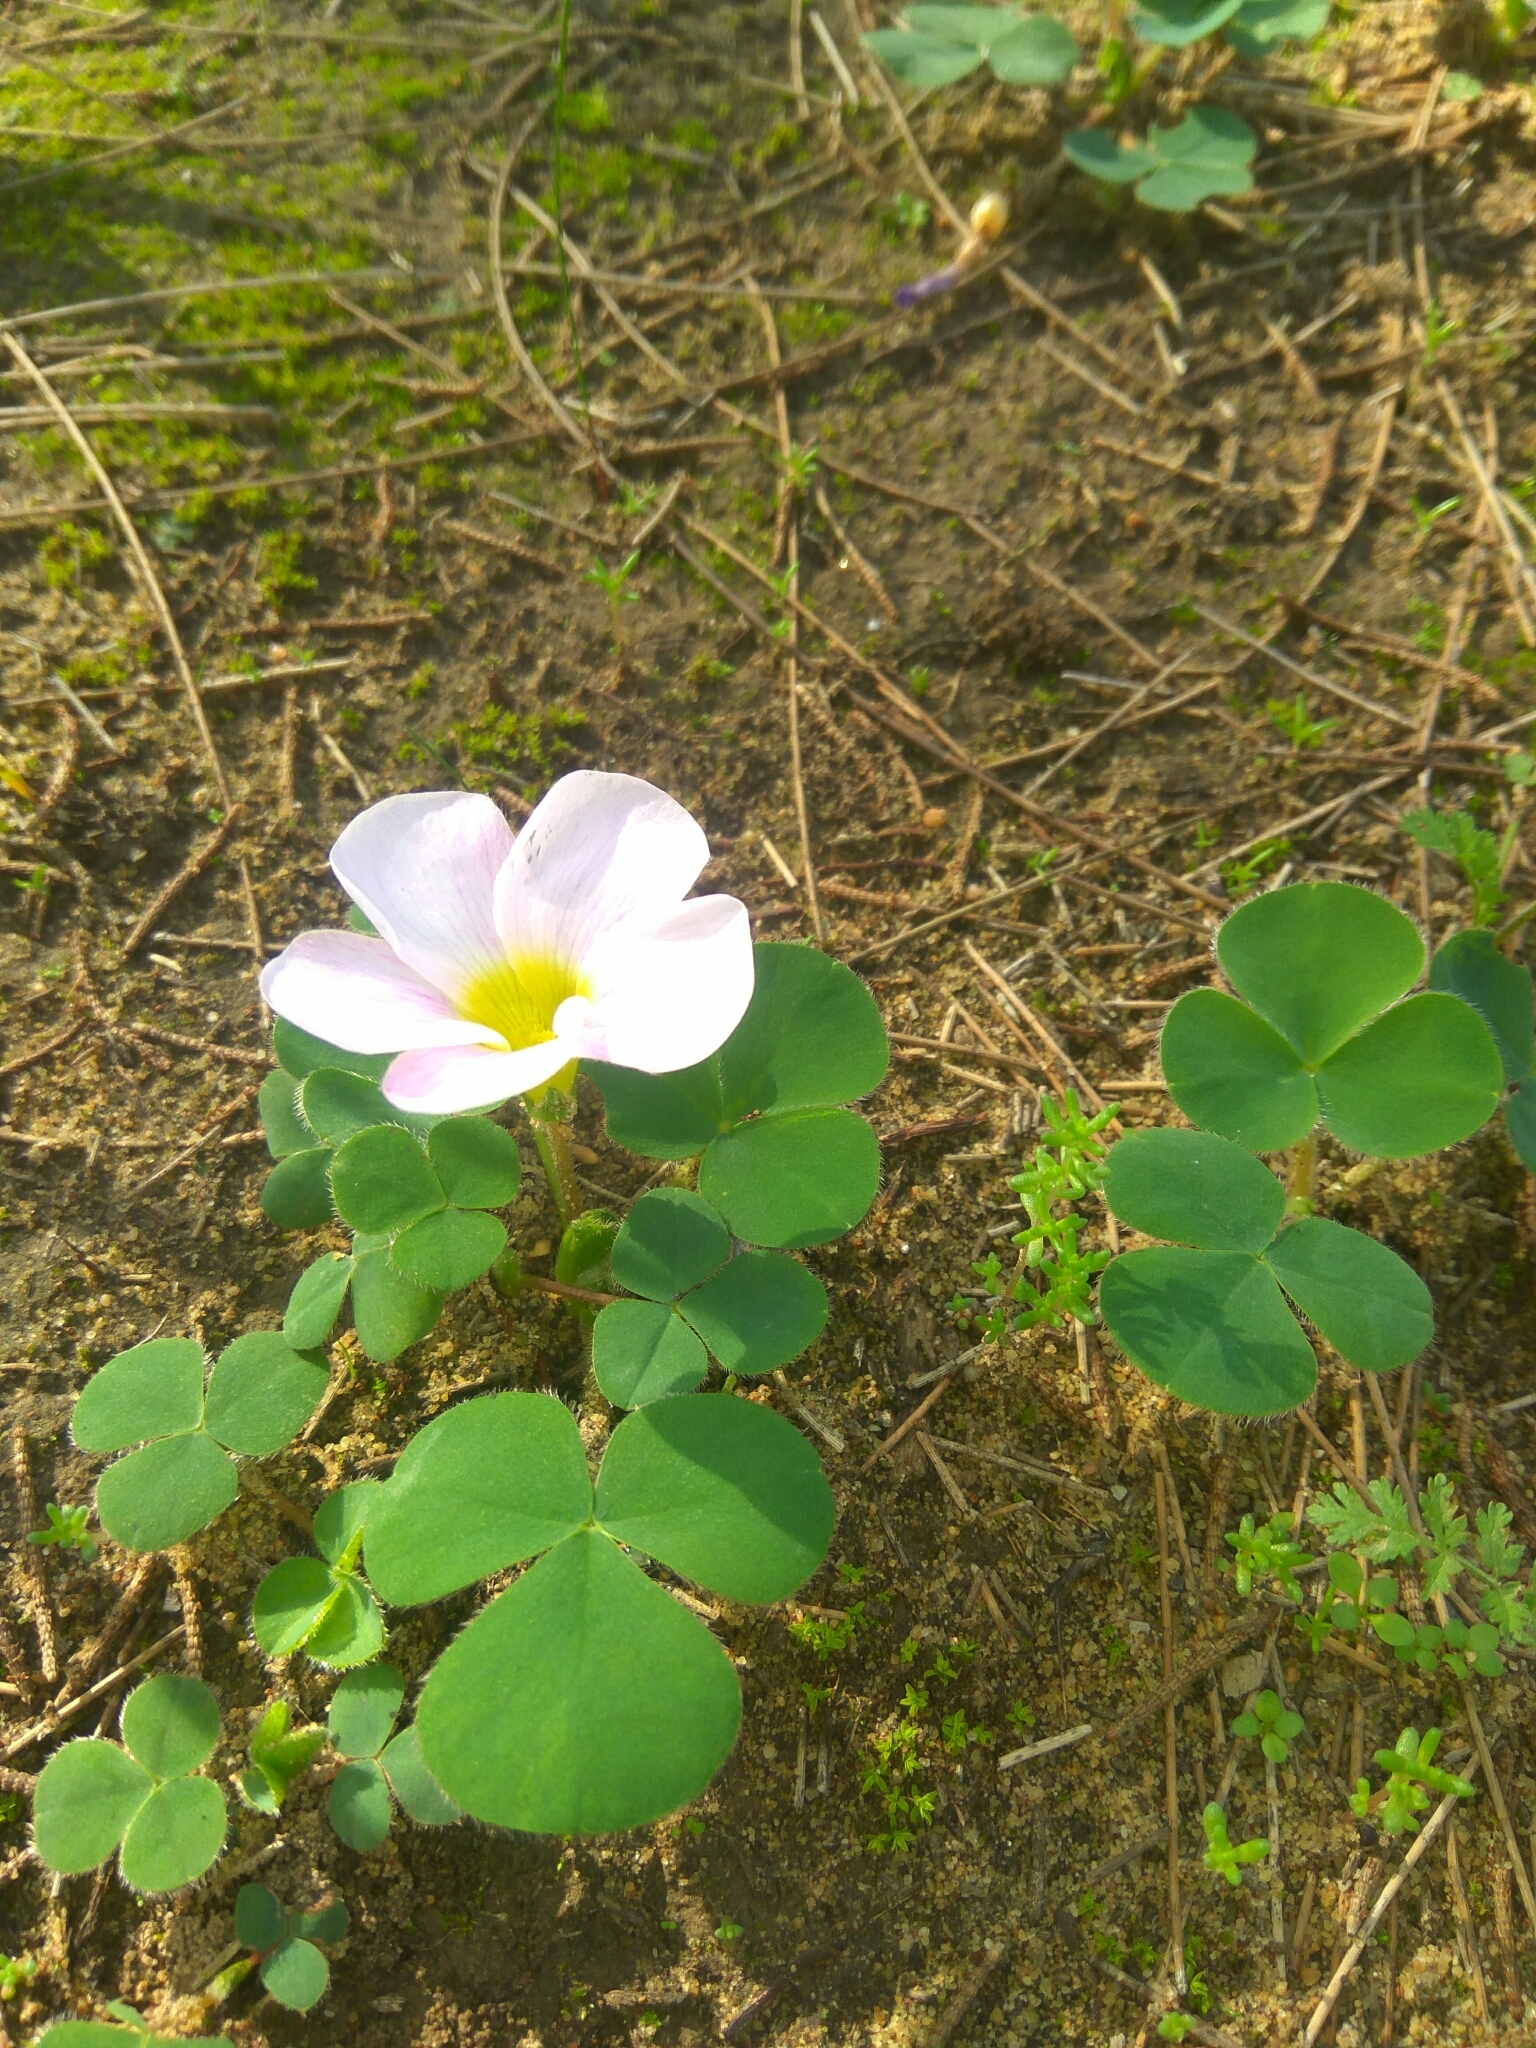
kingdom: Plantae
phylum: Tracheophyta
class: Magnoliopsida
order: Oxalidales
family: Oxalidaceae
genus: Oxalis
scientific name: Oxalis purpurea
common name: Purple woodsorrel
